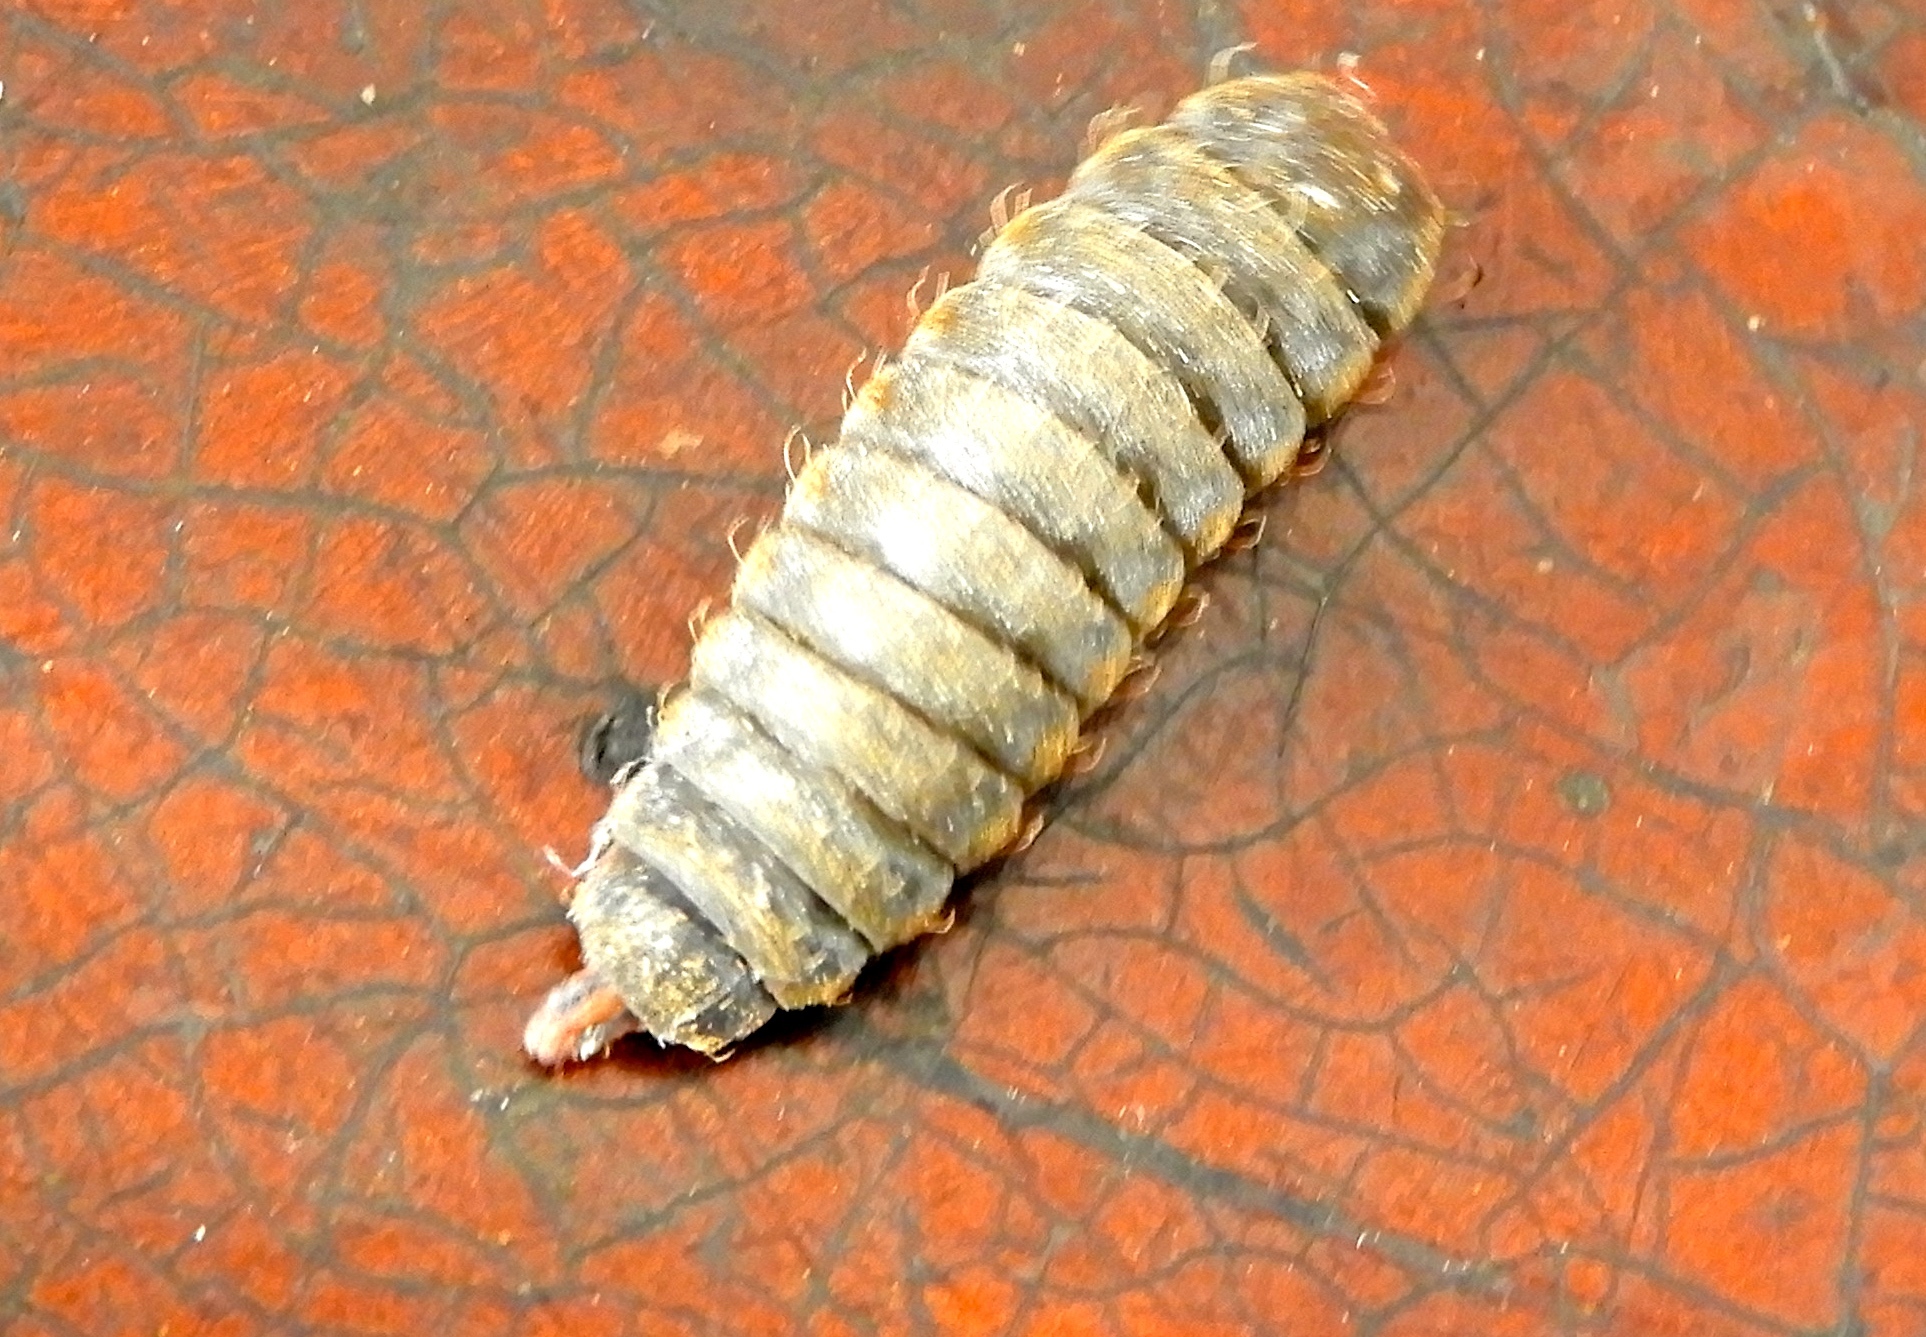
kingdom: Animalia
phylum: Arthropoda
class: Insecta
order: Diptera
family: Stratiomyidae
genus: Hermetia
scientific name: Hermetia
